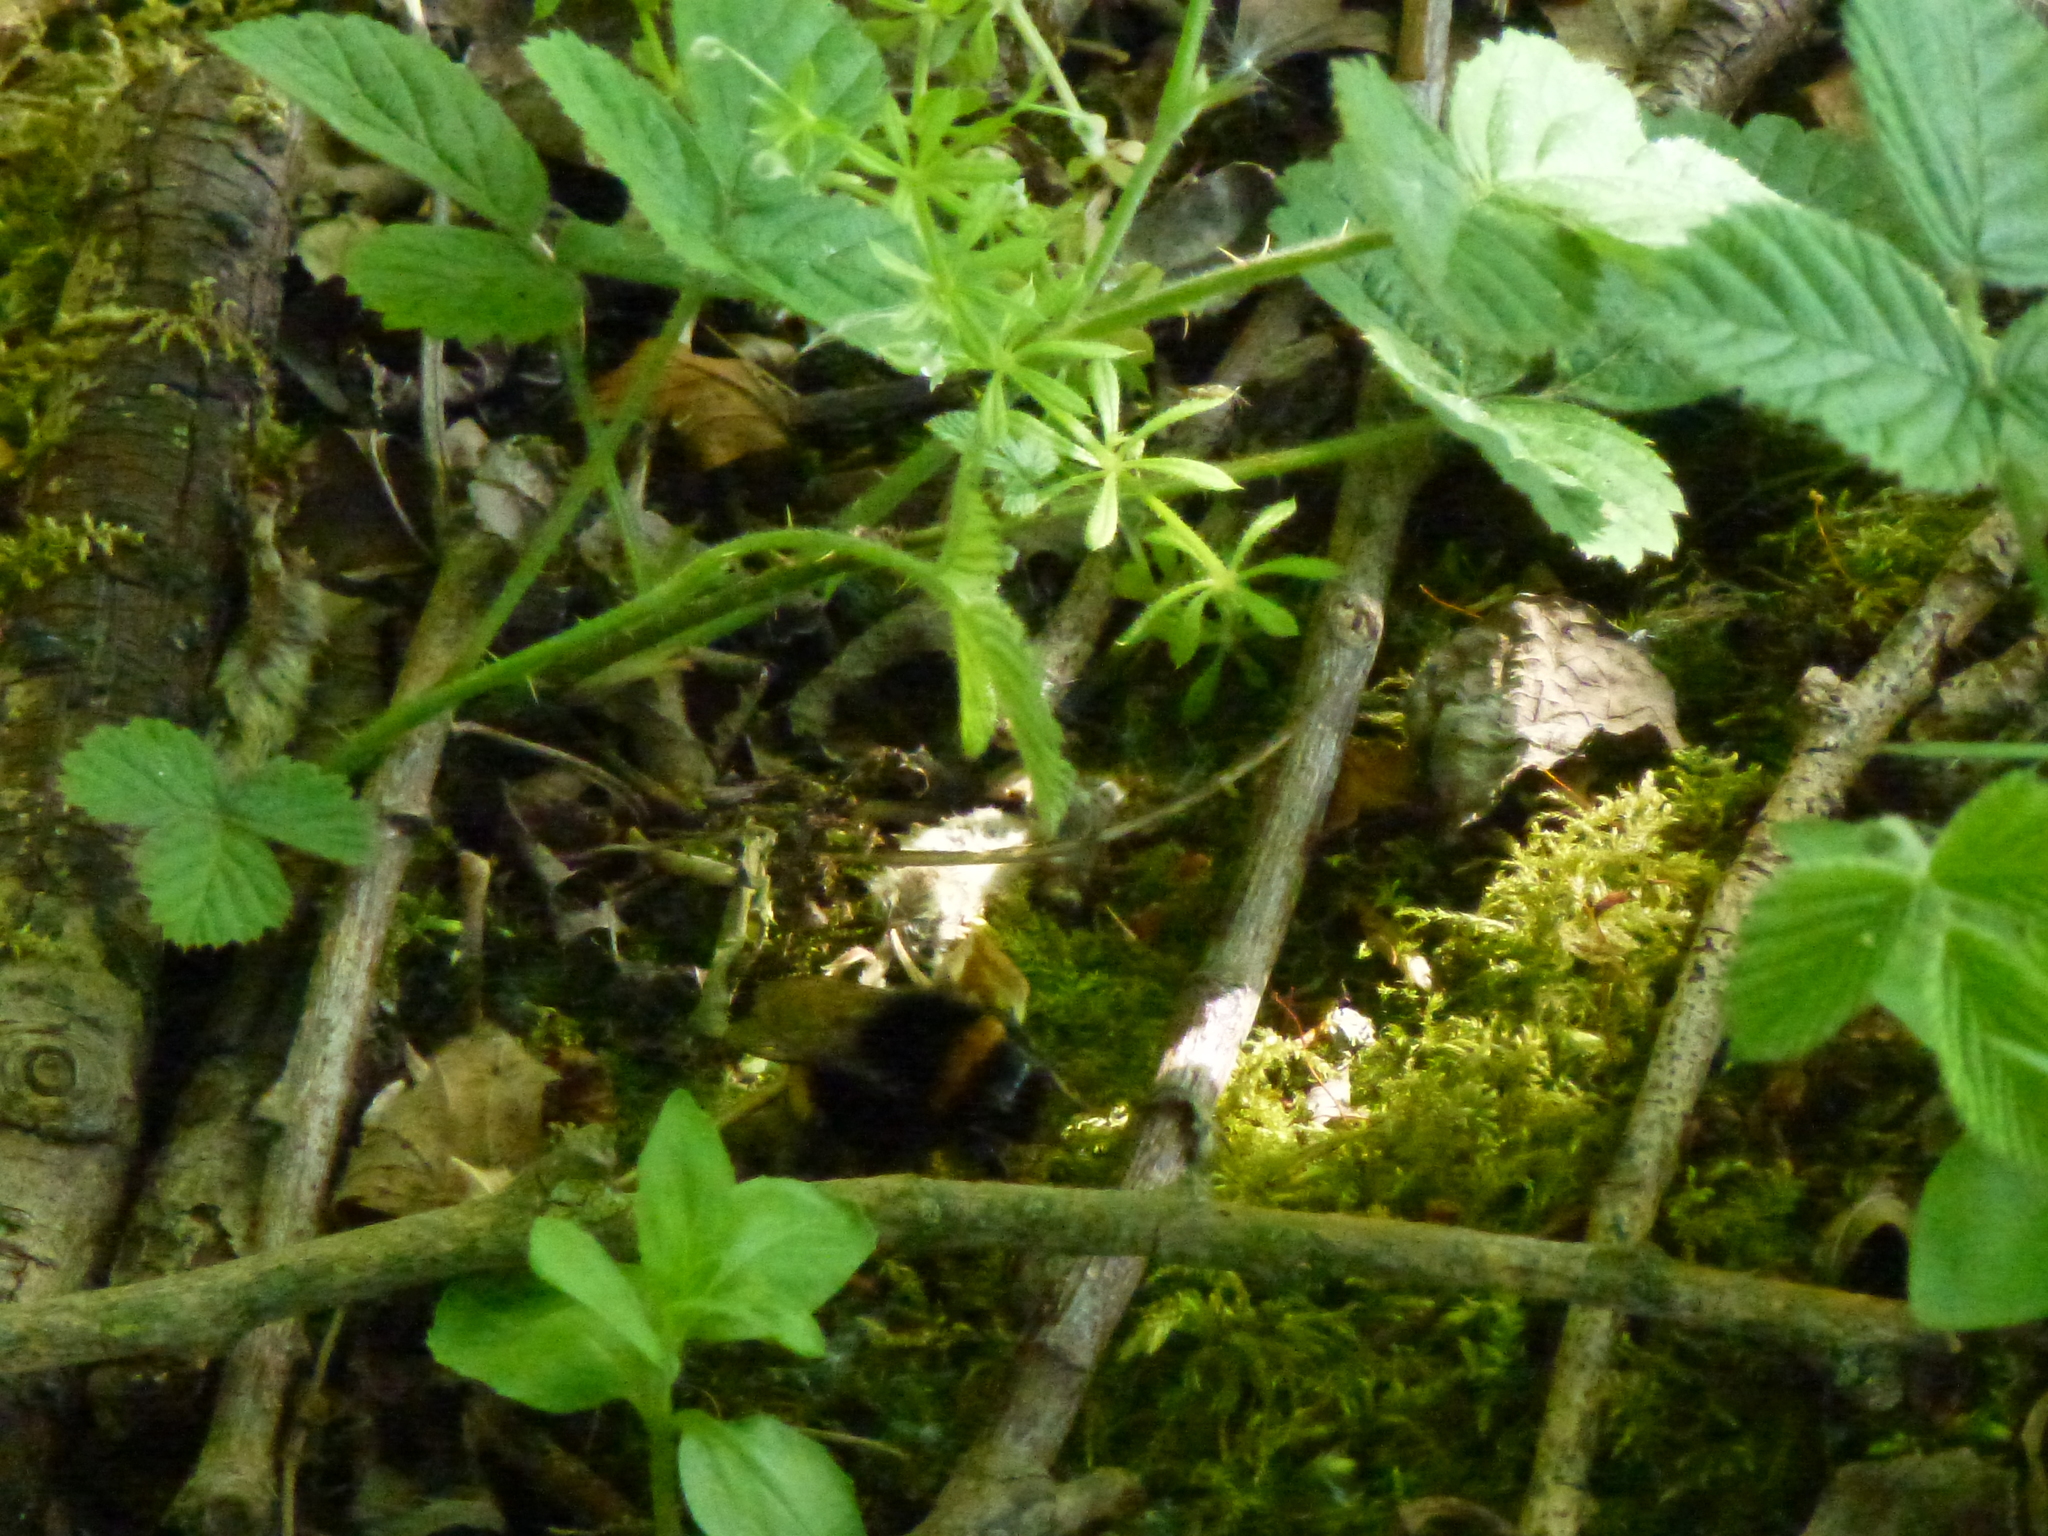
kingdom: Animalia
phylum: Arthropoda
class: Insecta
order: Hymenoptera
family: Apidae
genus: Bombus
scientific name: Bombus terrestris
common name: Buff-tailed bumblebee
